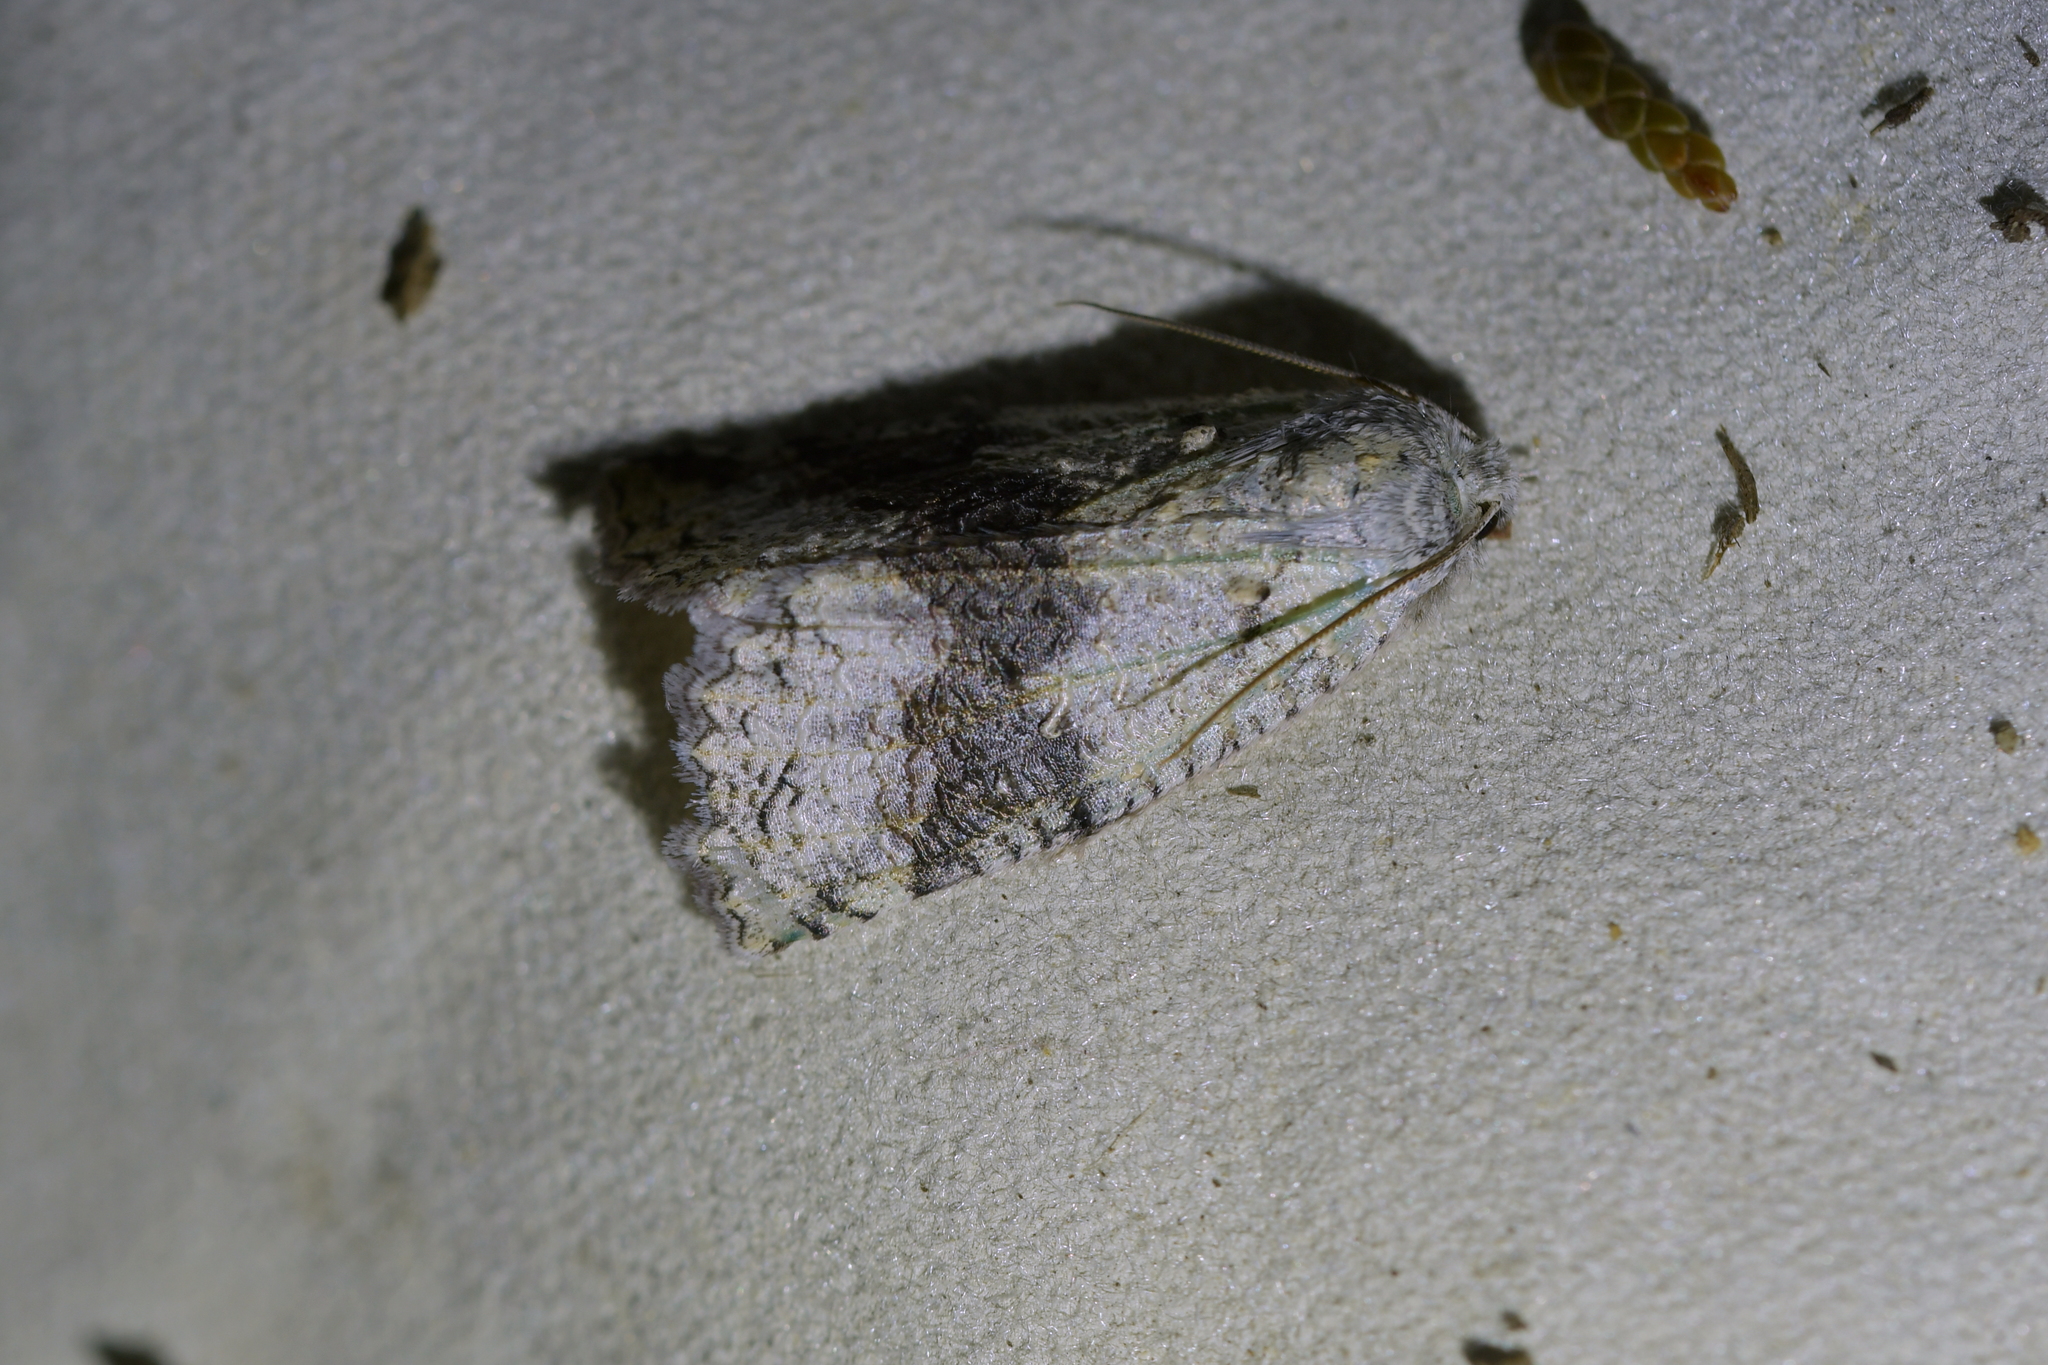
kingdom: Animalia
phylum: Arthropoda
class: Insecta
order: Lepidoptera
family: Geometridae
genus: Declana
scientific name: Declana floccosa
